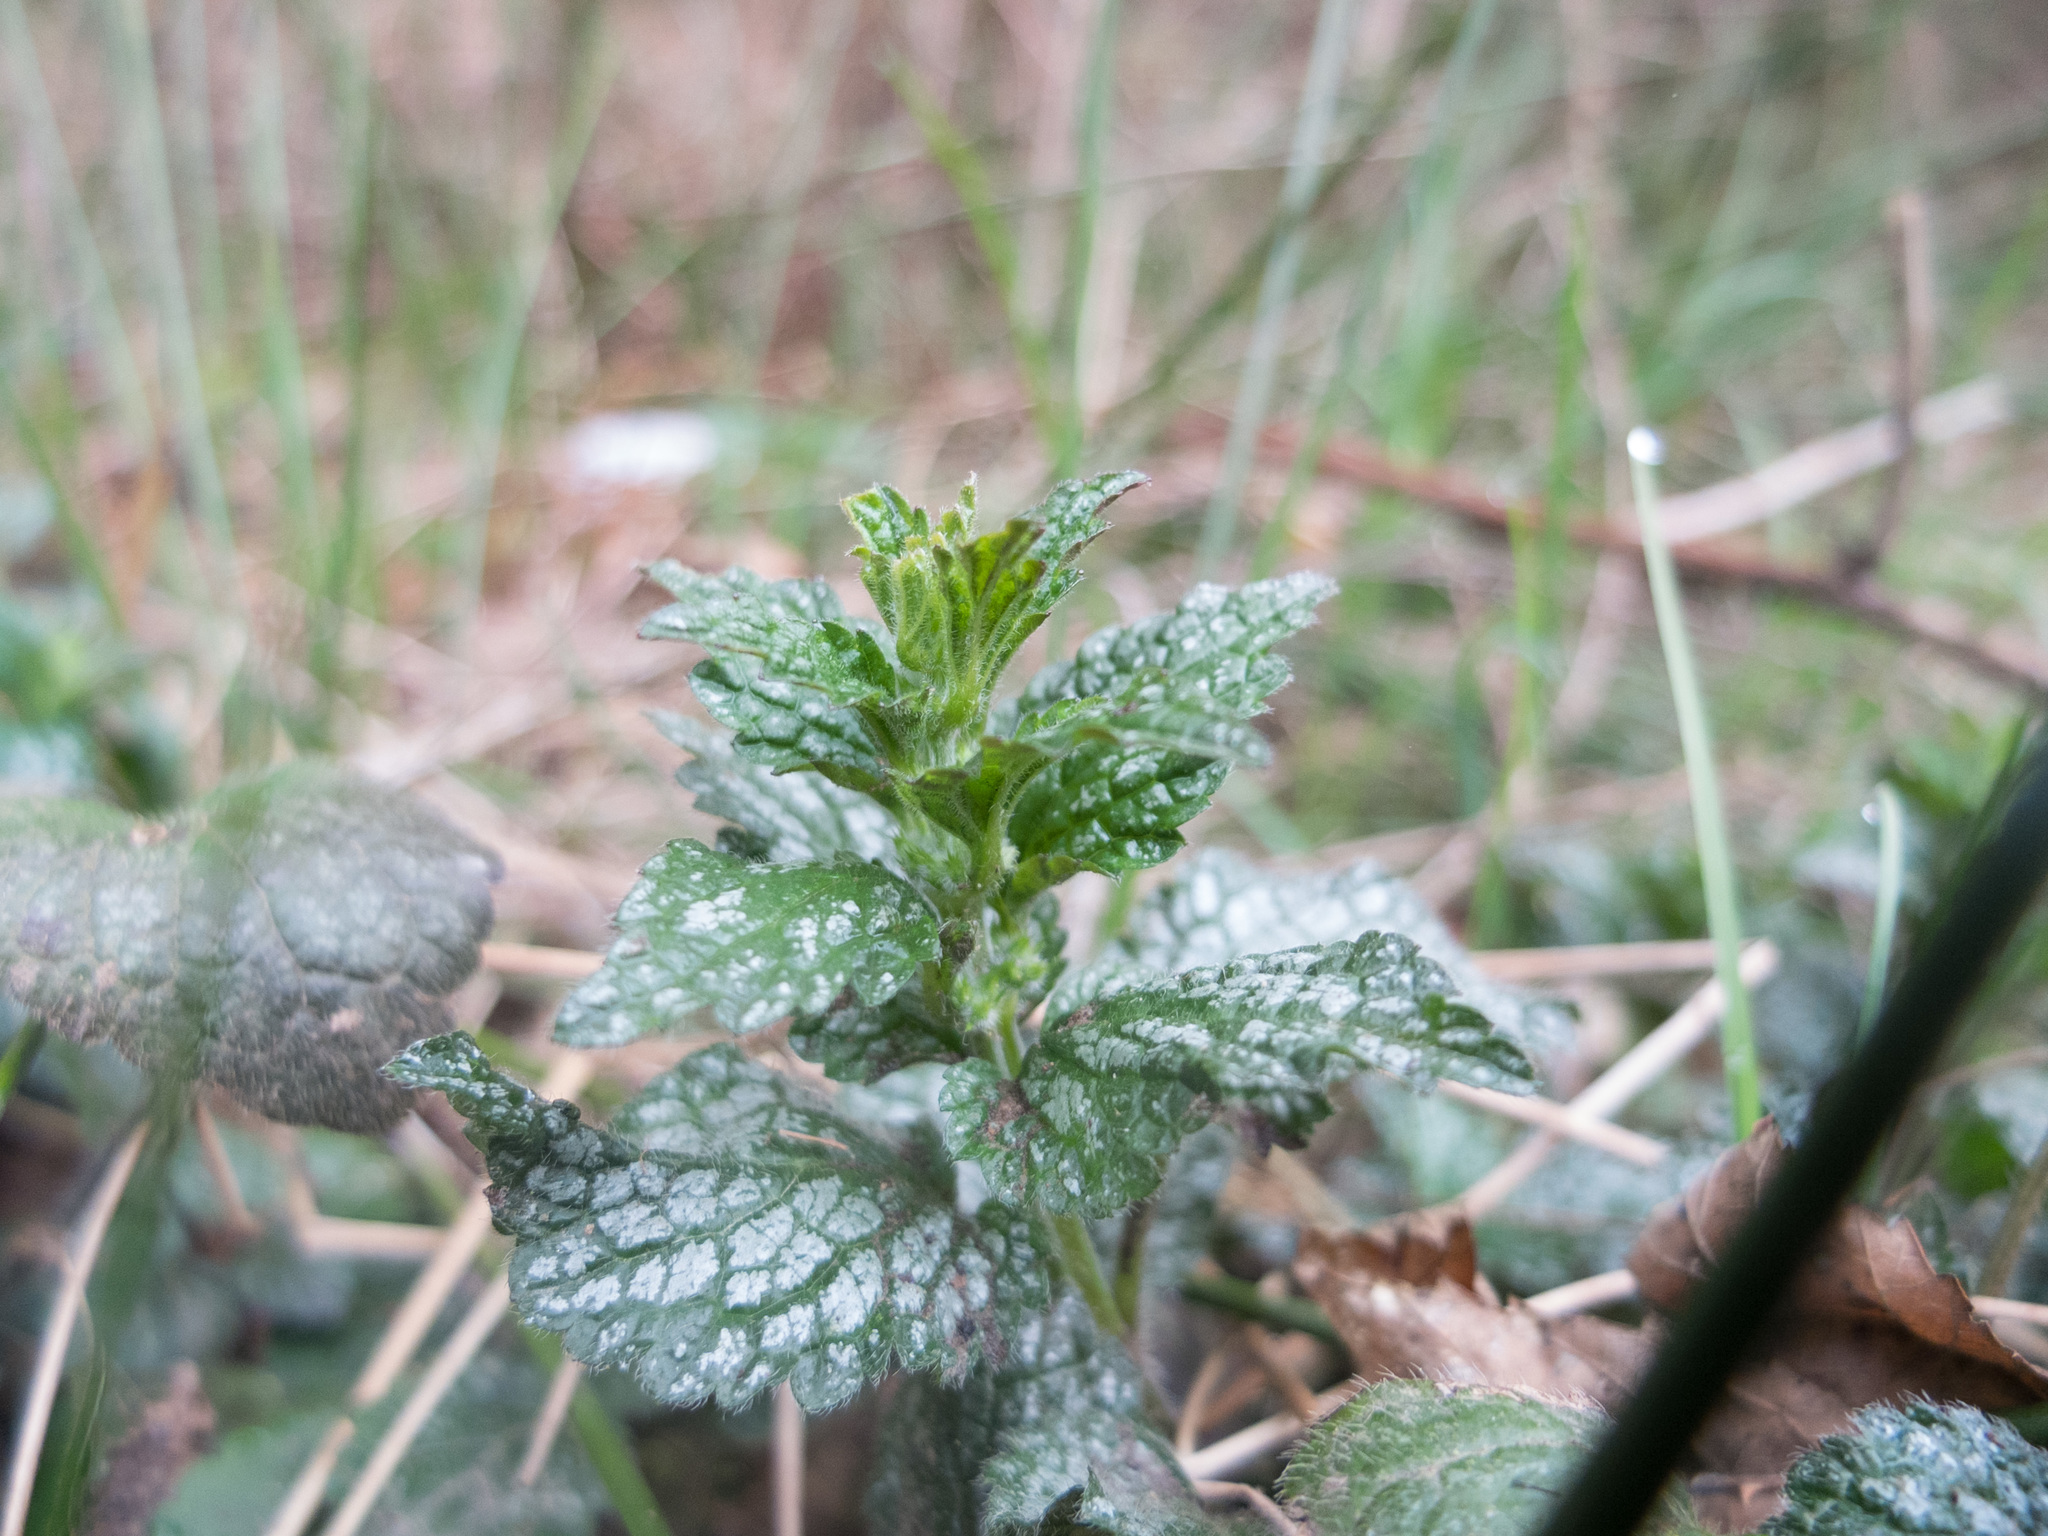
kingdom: Plantae
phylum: Tracheophyta
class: Magnoliopsida
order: Lamiales
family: Lamiaceae
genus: Lamium
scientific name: Lamium galeobdolon
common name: Yellow archangel
